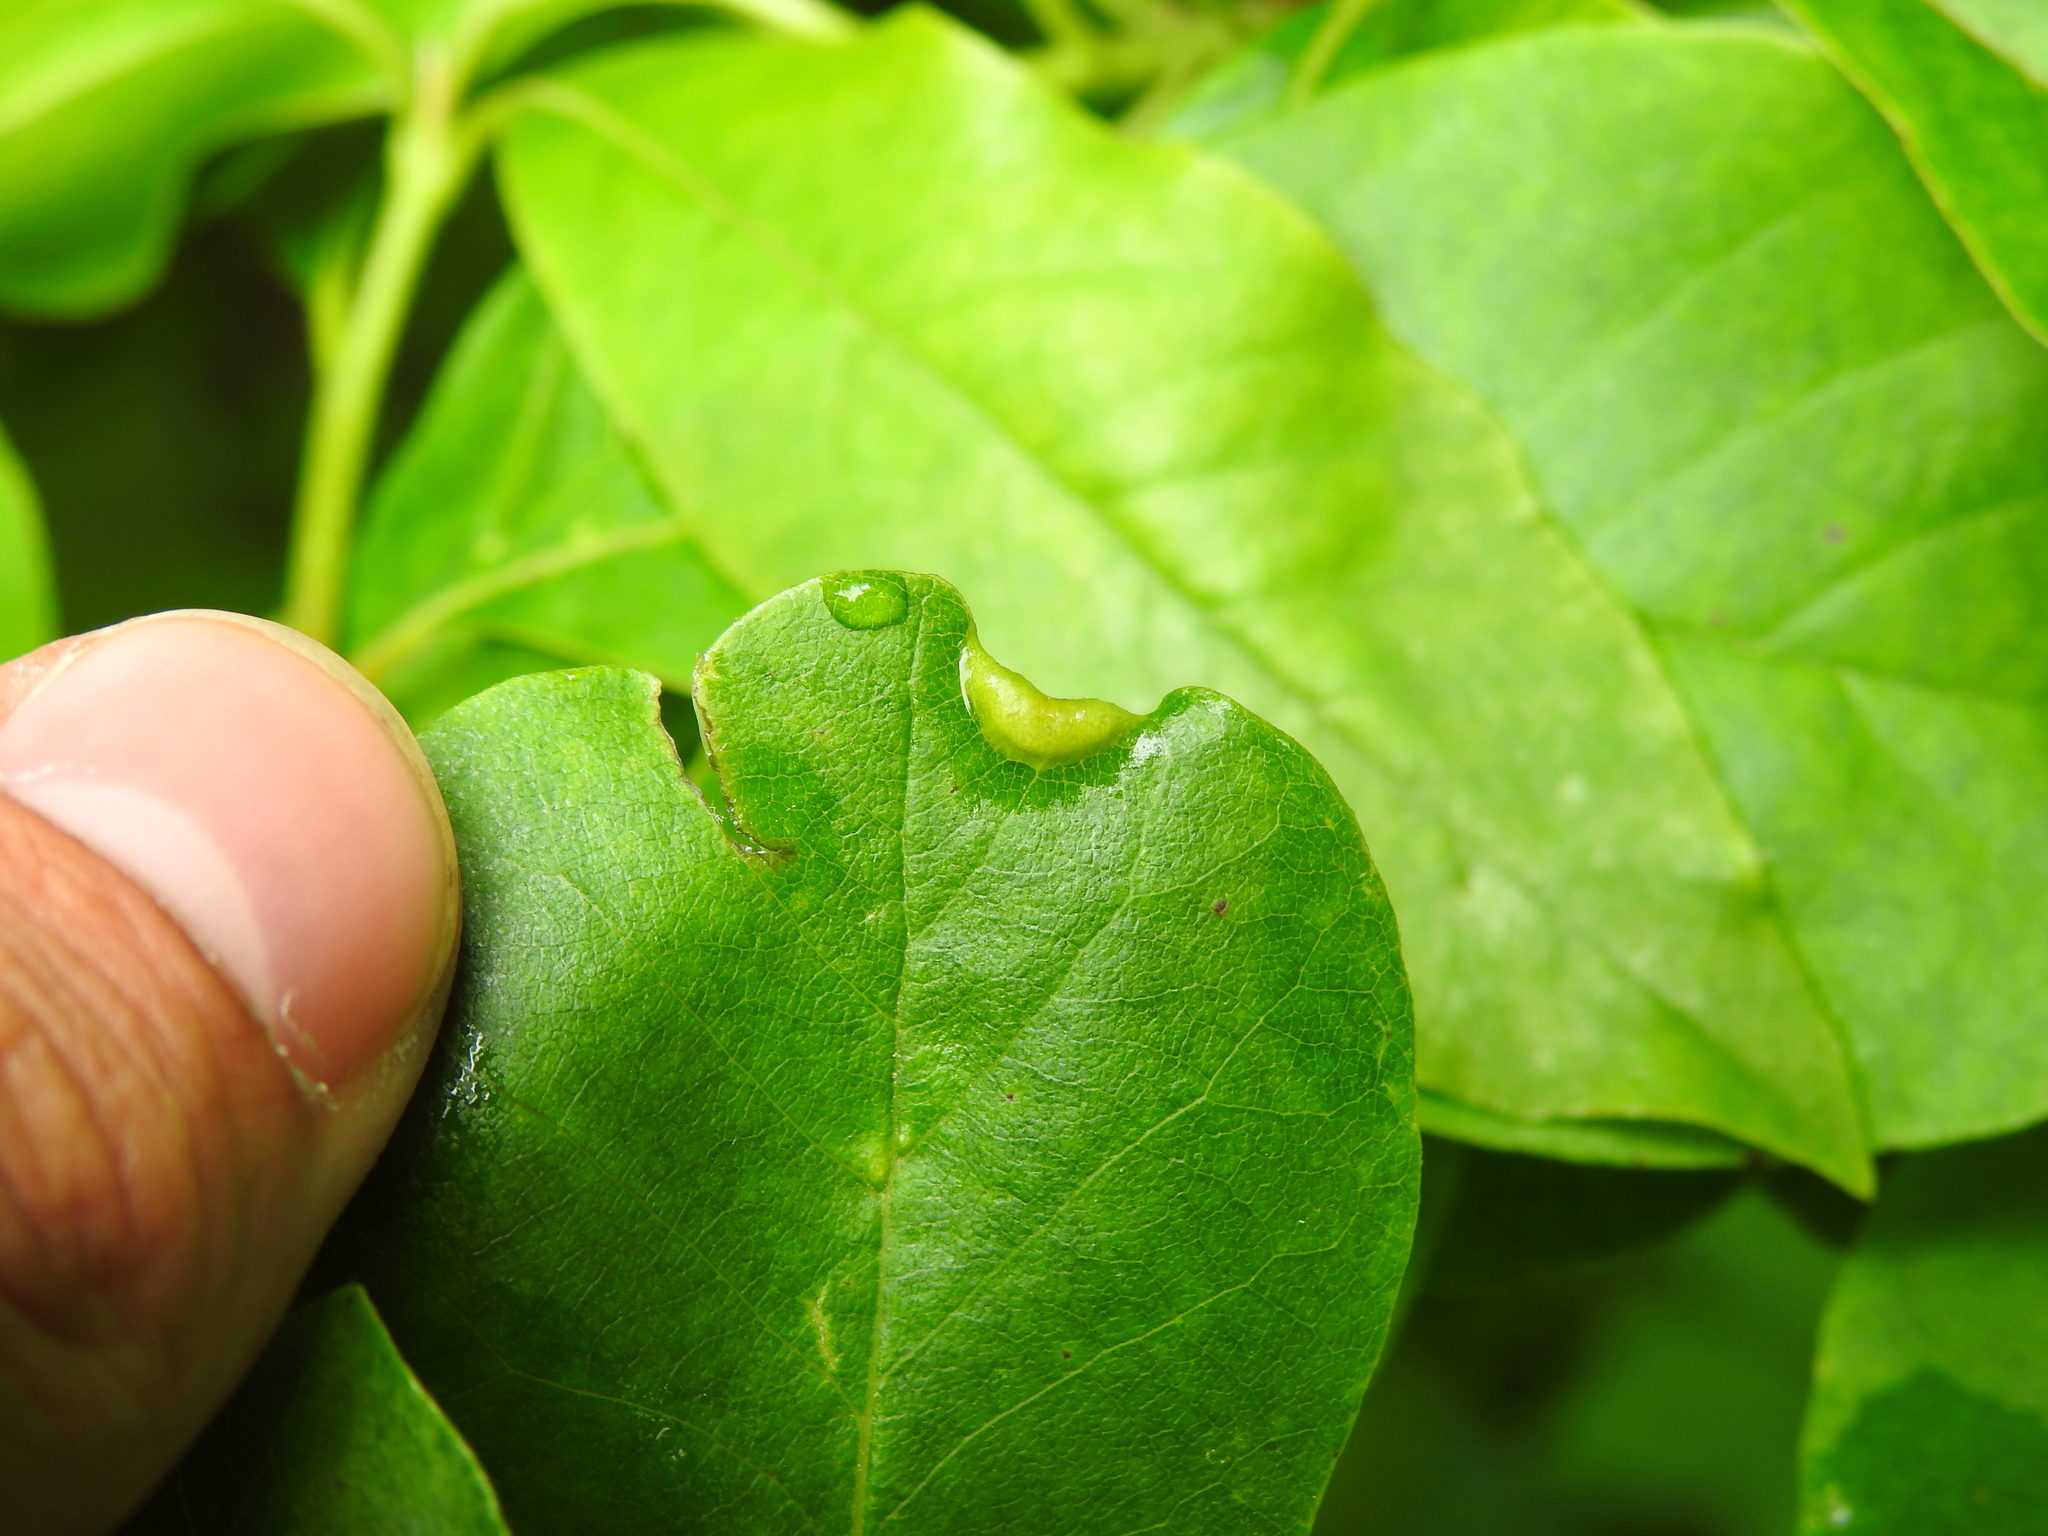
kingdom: Animalia
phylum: Arthropoda
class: Insecta
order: Hemiptera
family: Phylloxeridae
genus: Phylloxerina
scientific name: Phylloxerina nyssae
